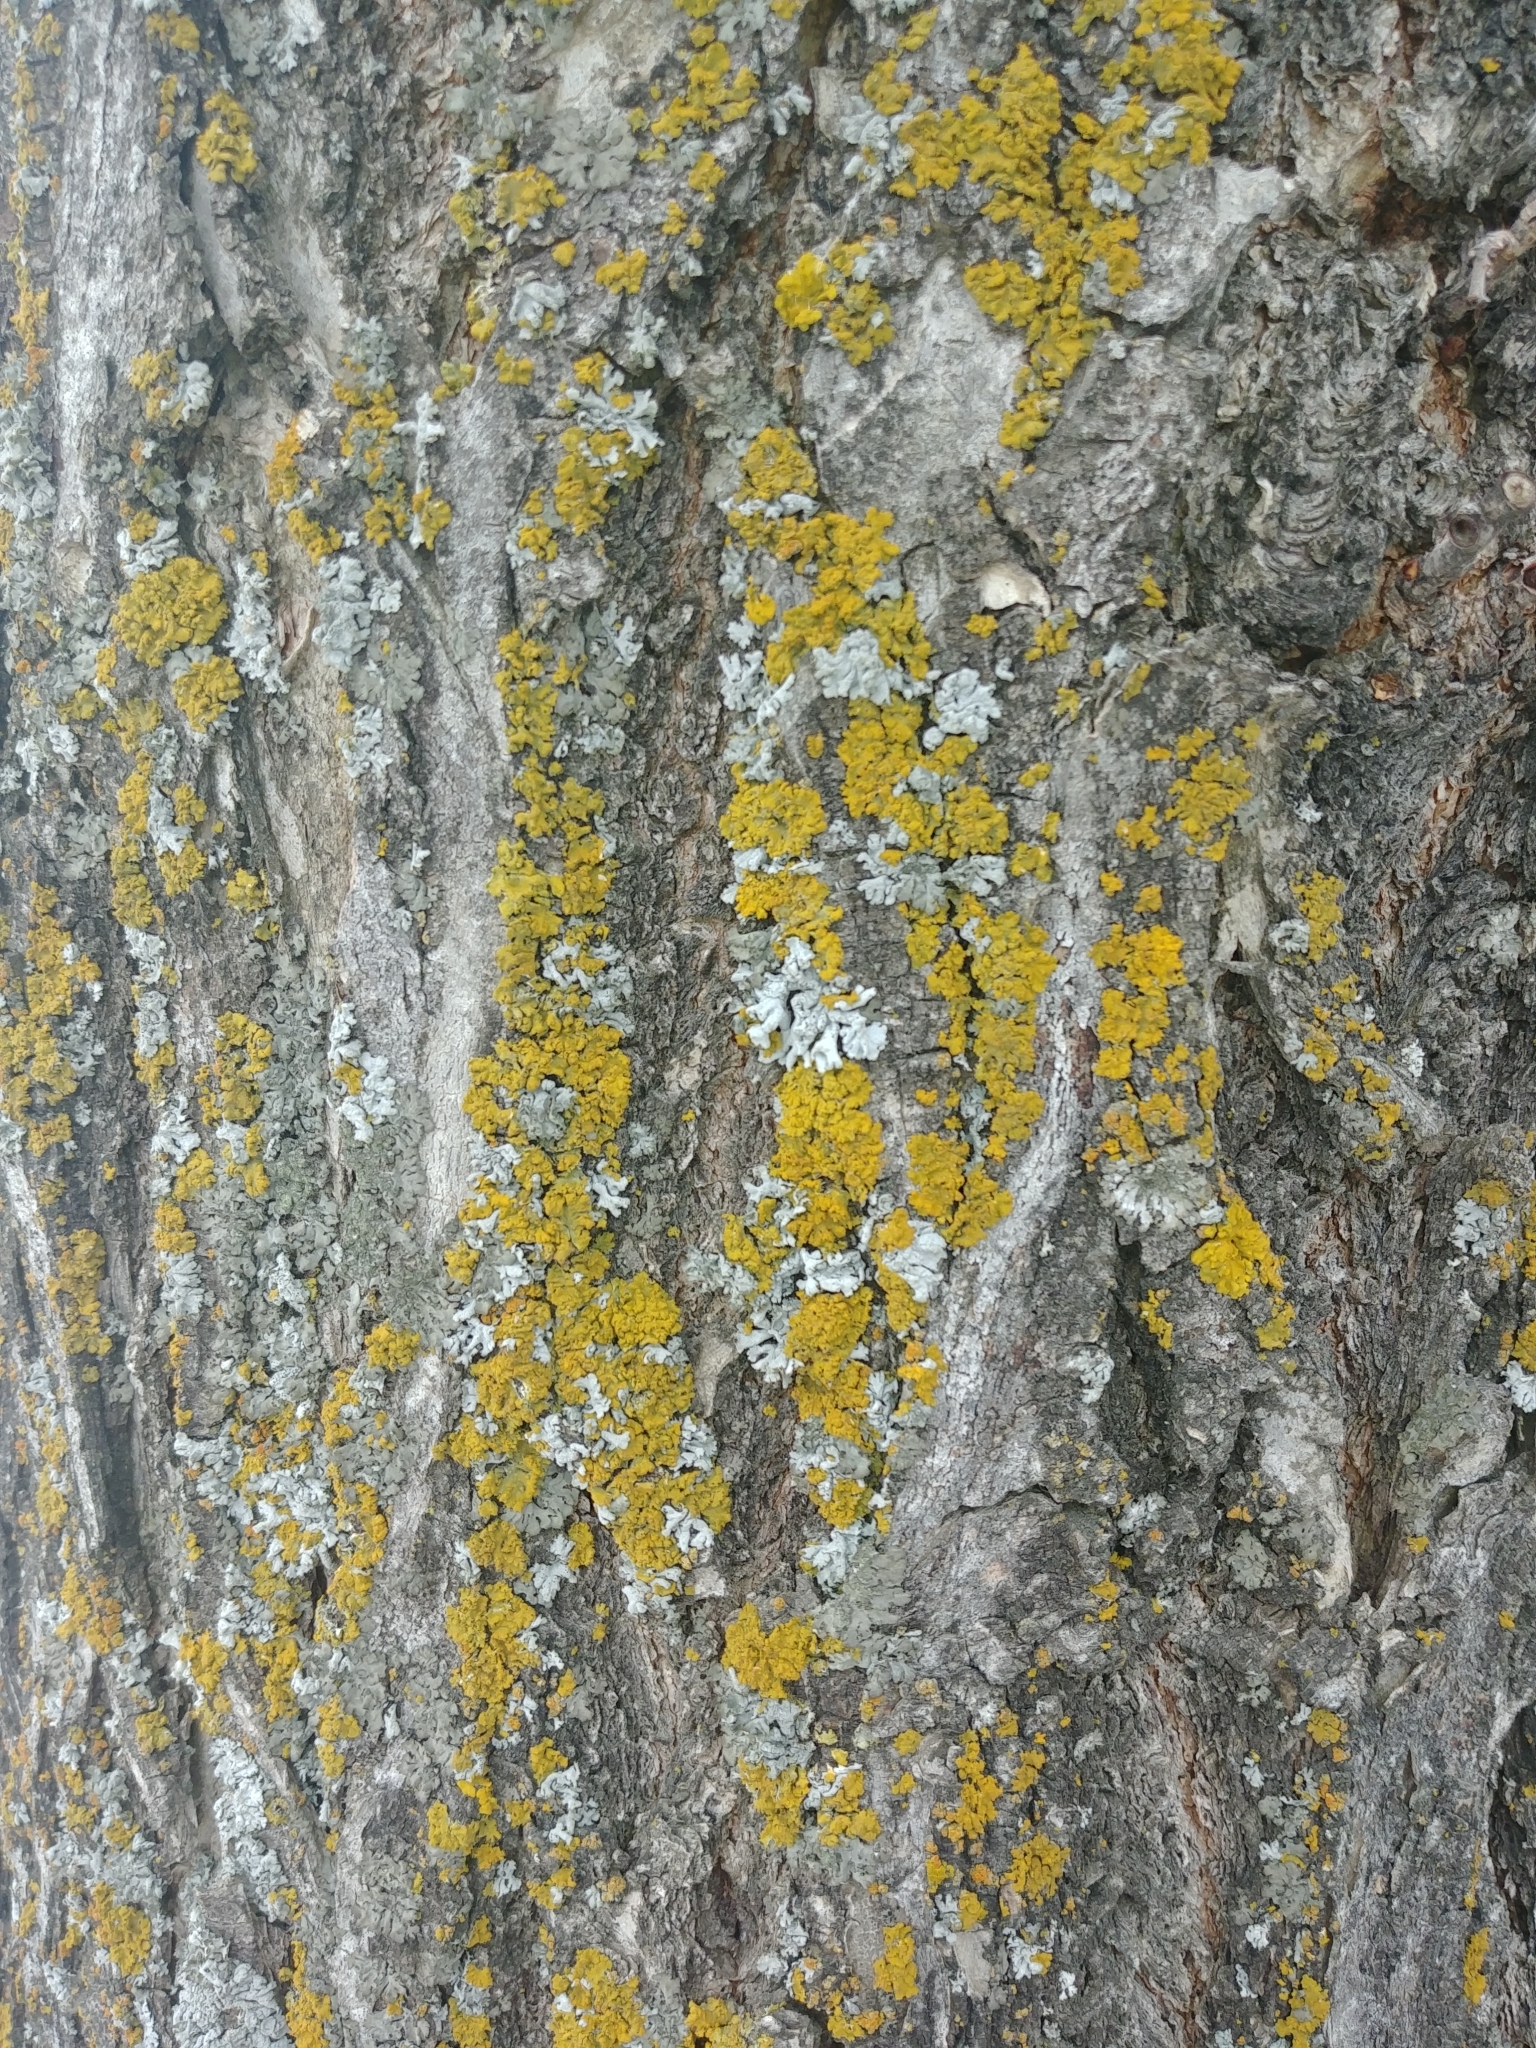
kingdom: Fungi
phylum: Ascomycota
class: Lecanoromycetes
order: Teloschistales
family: Teloschistaceae
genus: Oxneria
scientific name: Oxneria fallax
